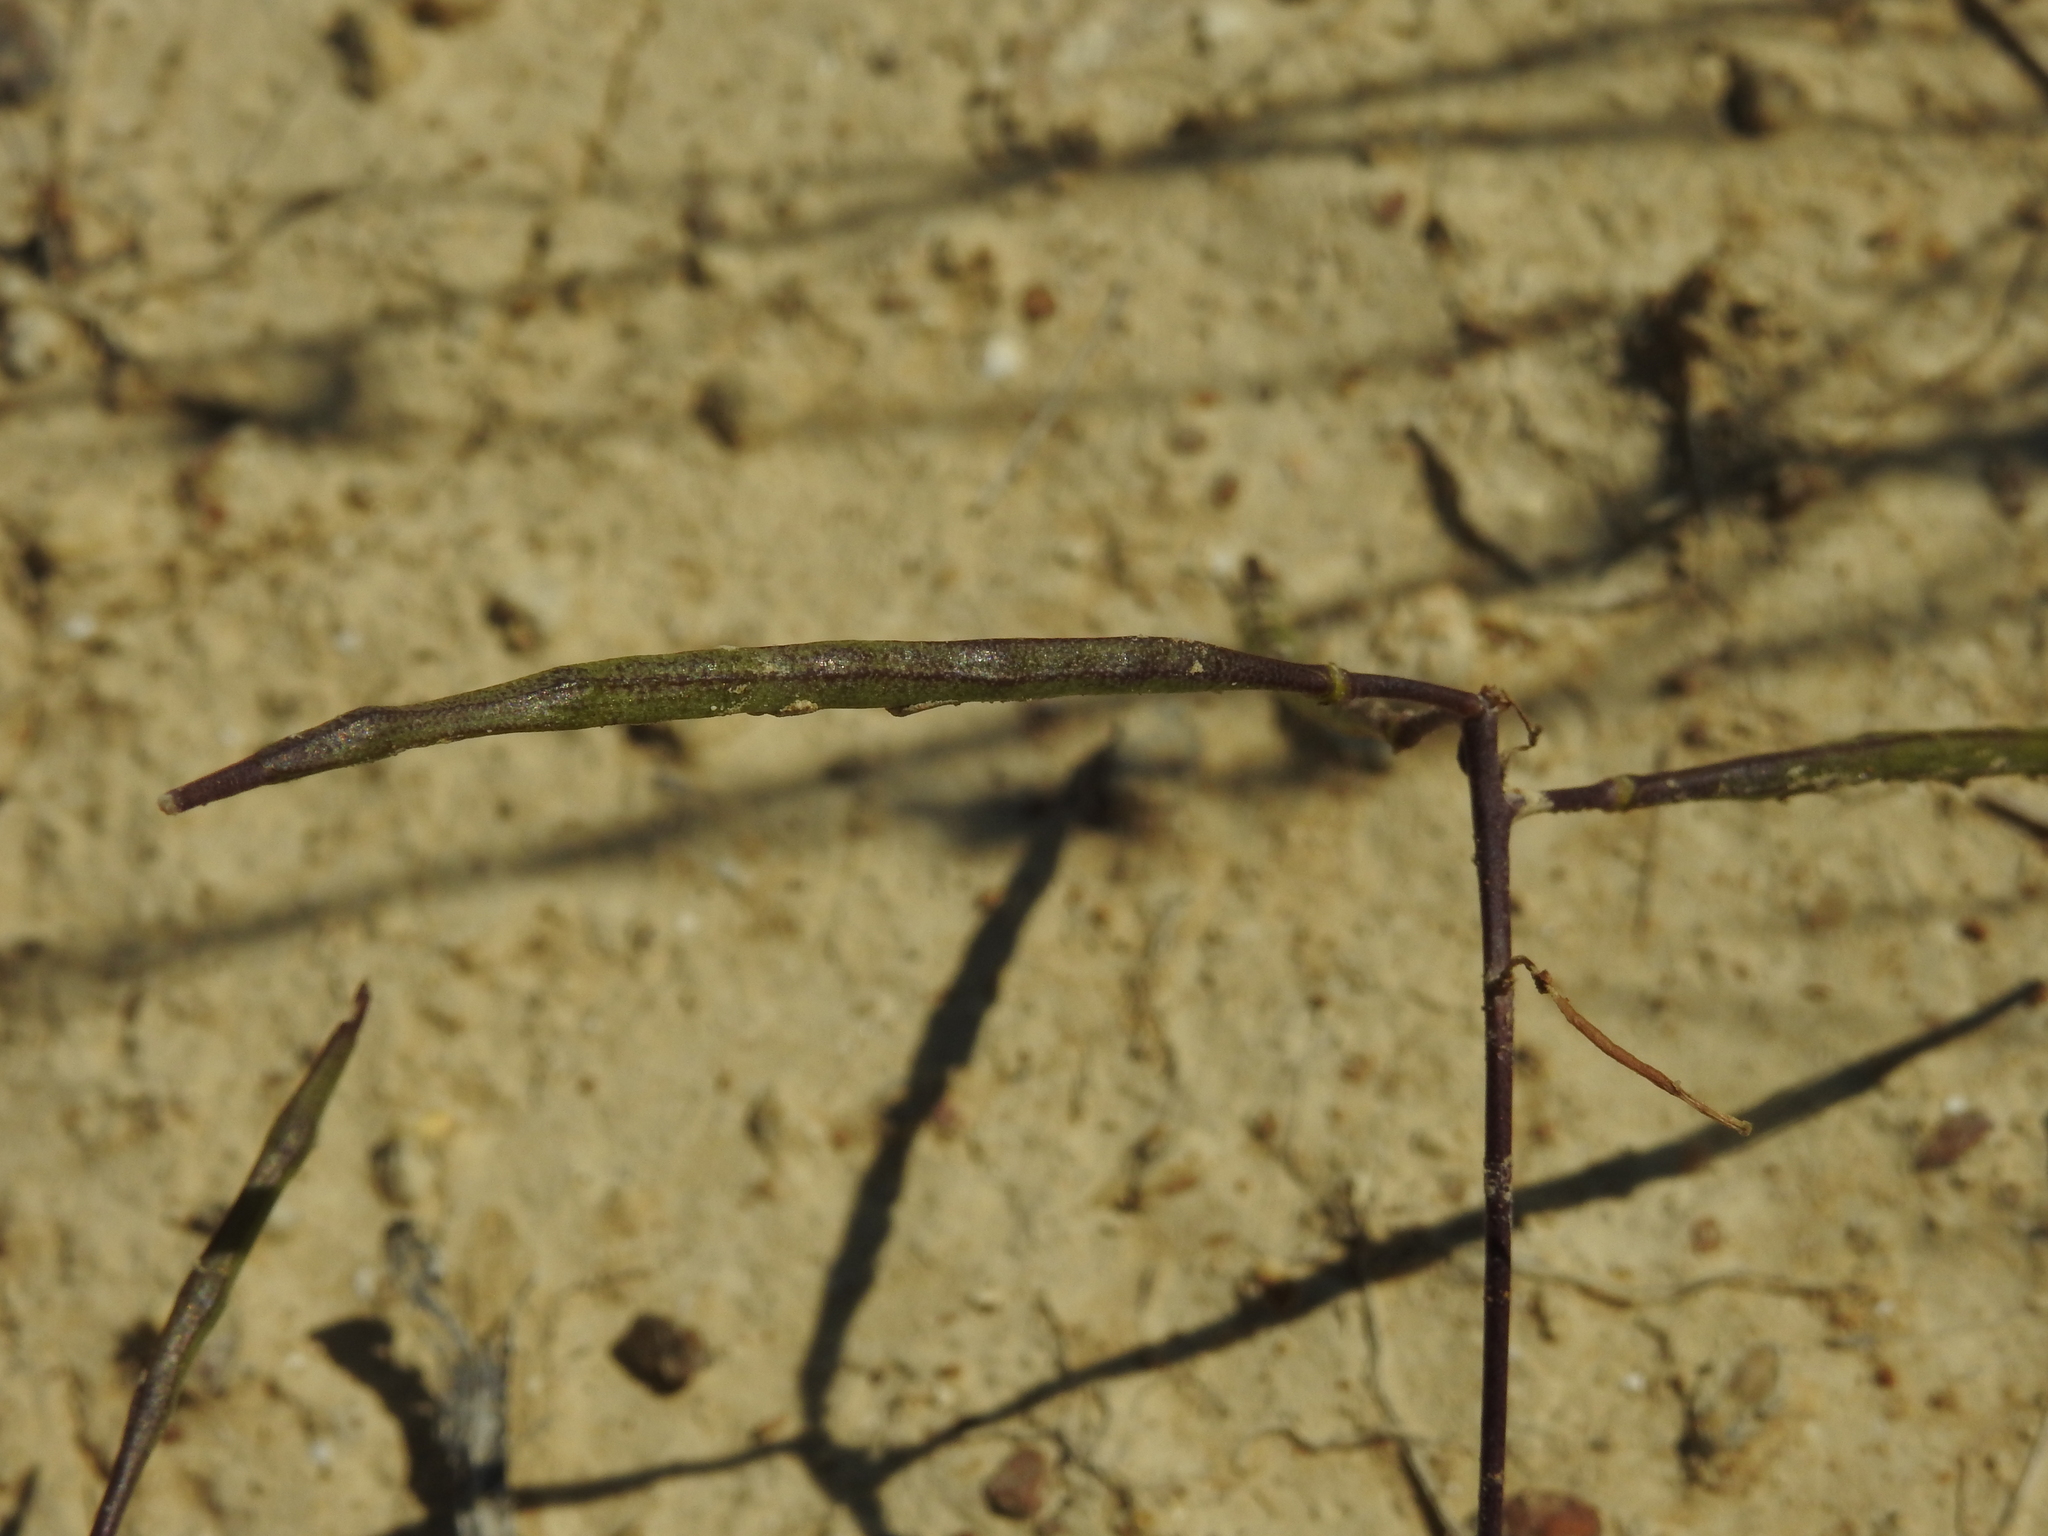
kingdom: Plantae
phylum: Tracheophyta
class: Magnoliopsida
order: Brassicales
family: Brassicaceae
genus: Brassica
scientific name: Brassica repanda
